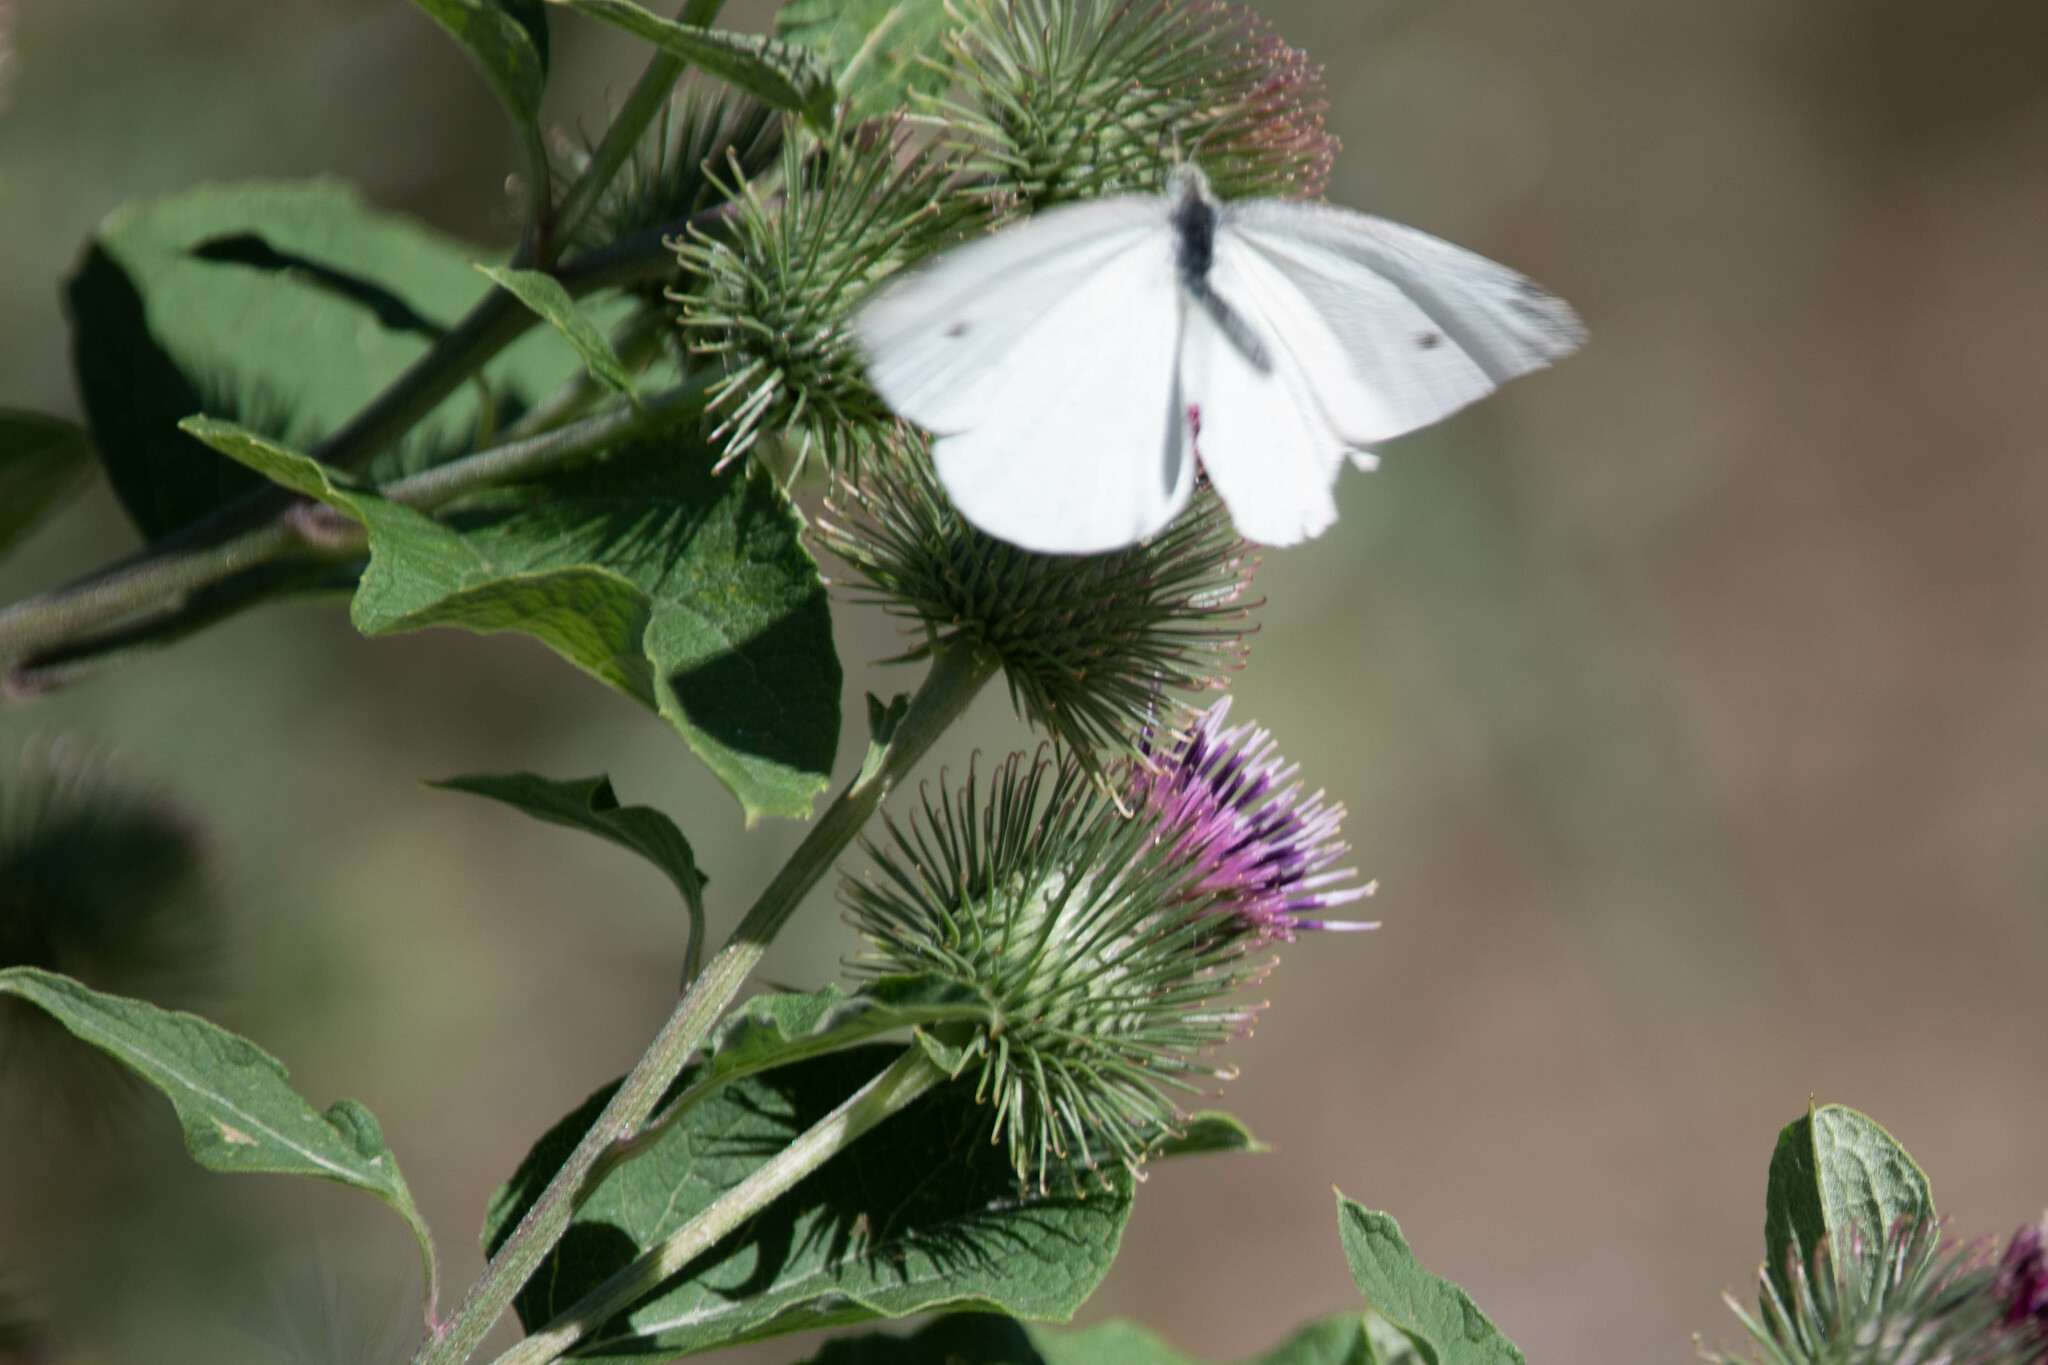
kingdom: Animalia
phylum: Arthropoda
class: Insecta
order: Lepidoptera
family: Pieridae
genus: Pieris
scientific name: Pieris rapae
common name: Small white
